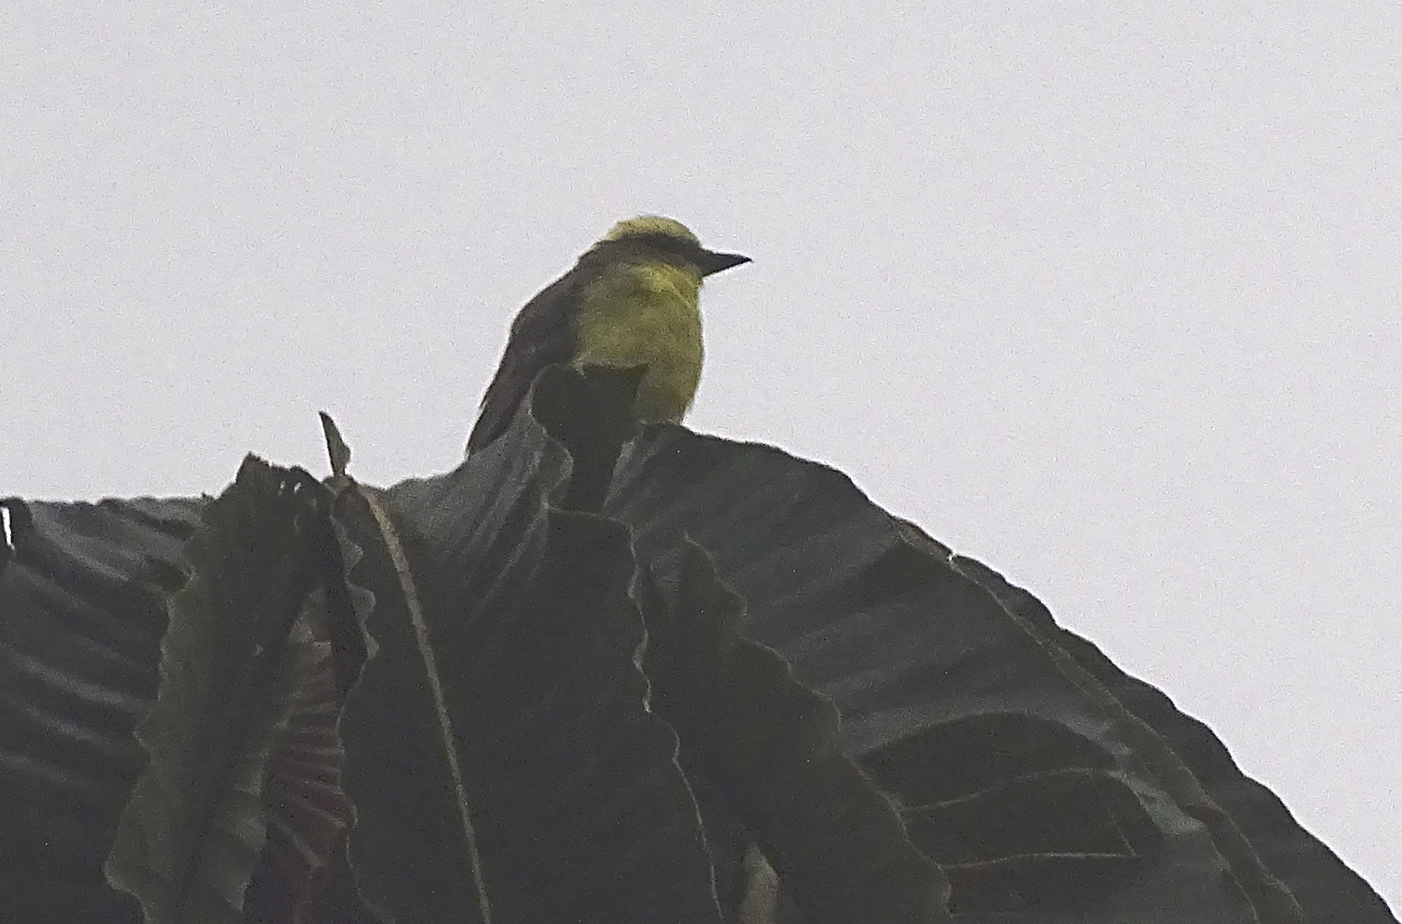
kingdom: Animalia
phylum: Chordata
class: Aves
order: Passeriformes
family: Tyrannidae
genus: Conopias
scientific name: Conopias cinchoneti
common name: Lemon-browed flycatcher
